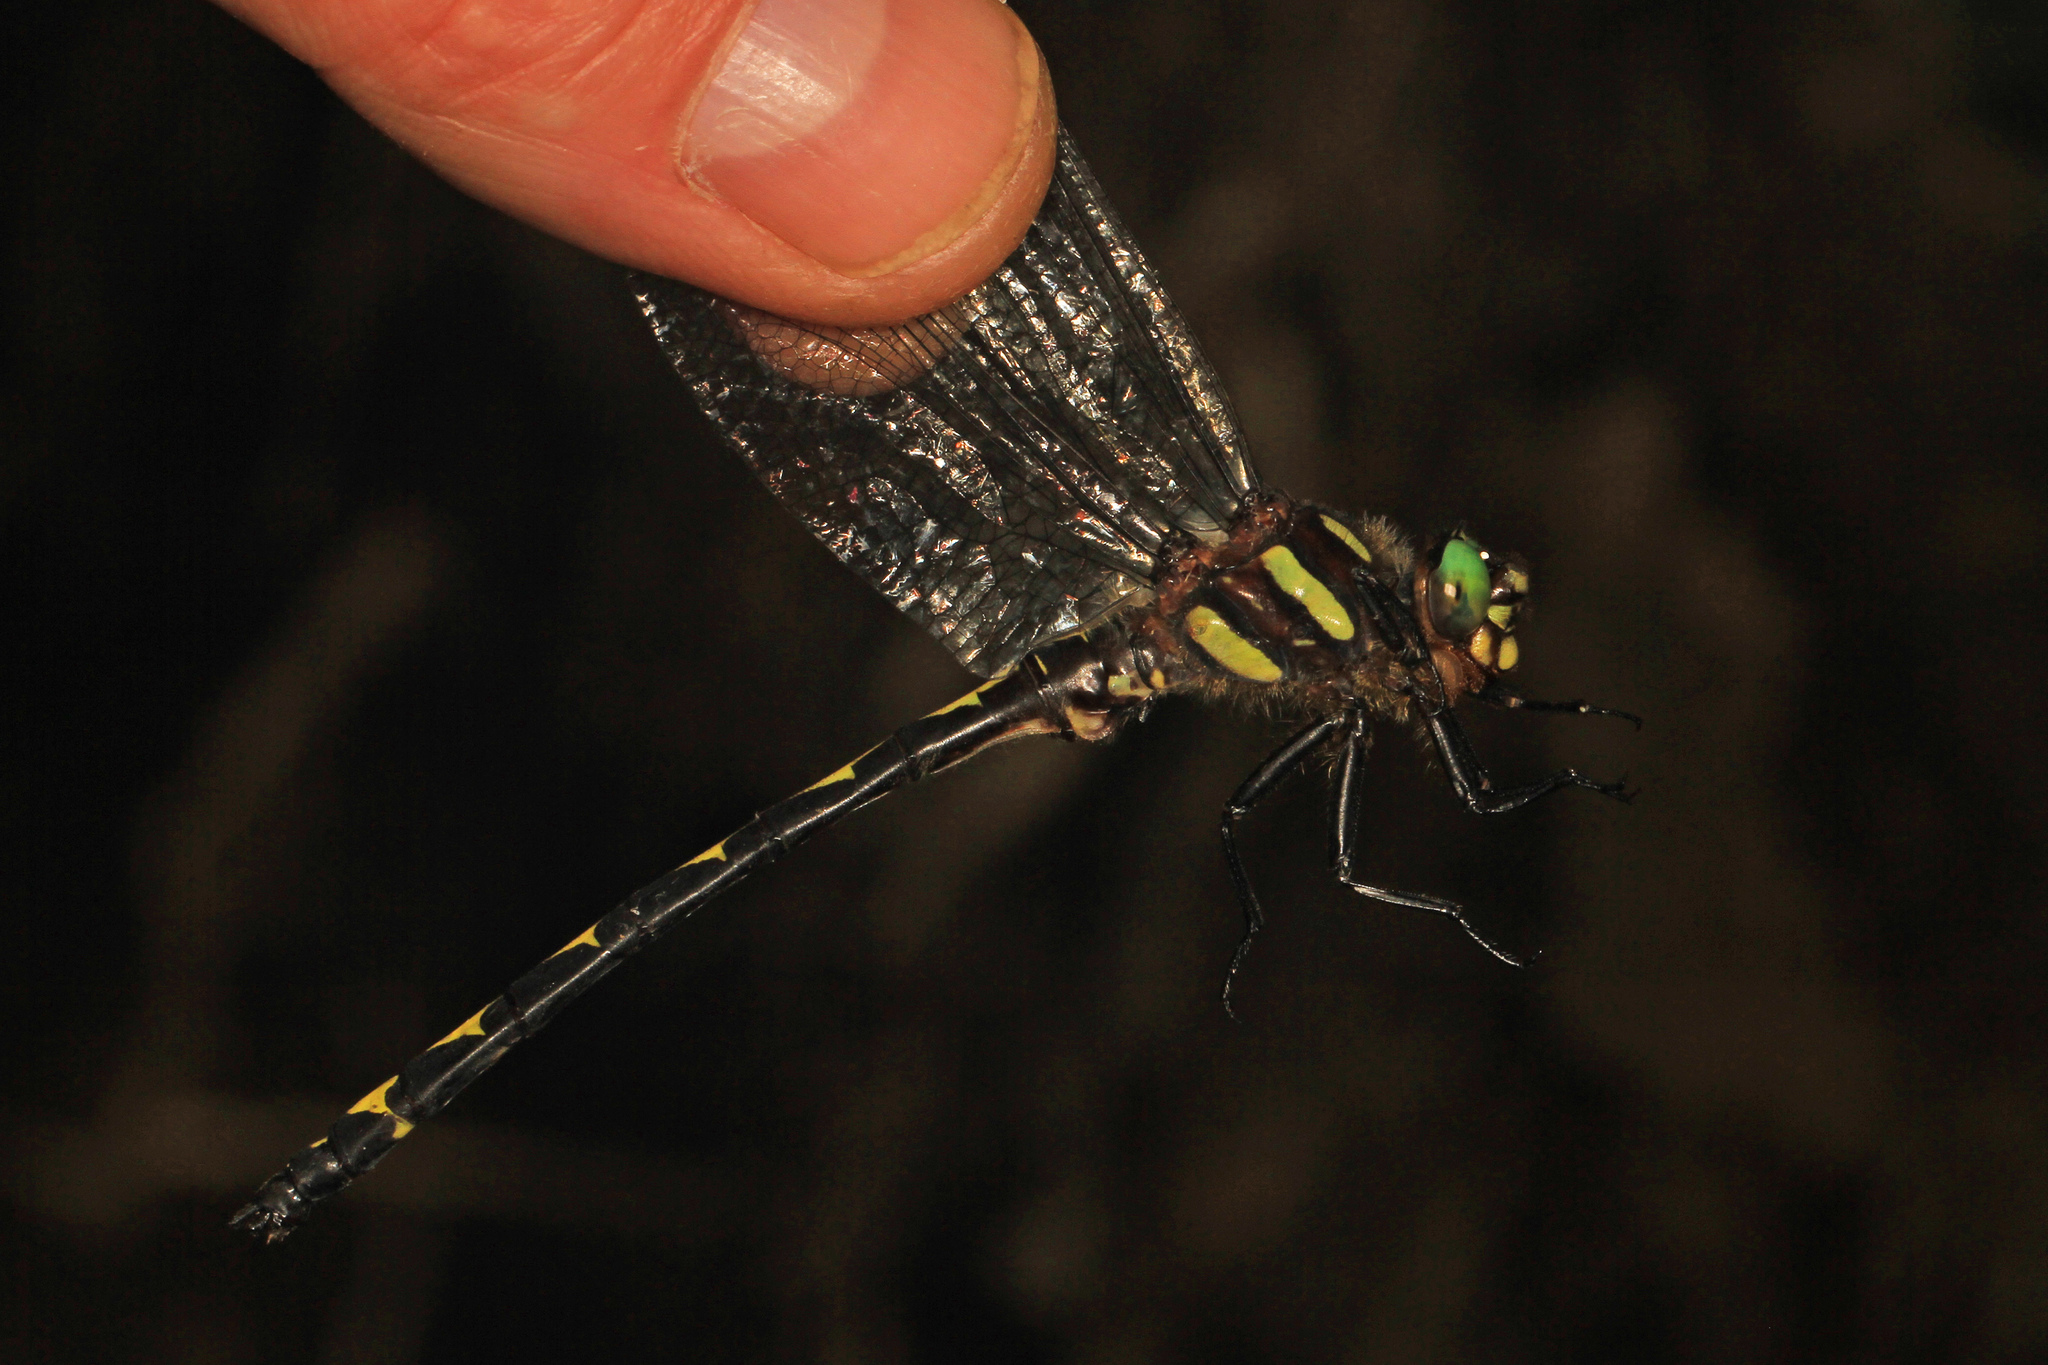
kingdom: Animalia
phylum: Arthropoda
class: Insecta
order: Odonata
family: Cordulegastridae
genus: Cordulegaster
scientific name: Cordulegaster obliqua
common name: Arrowhead spiketail
